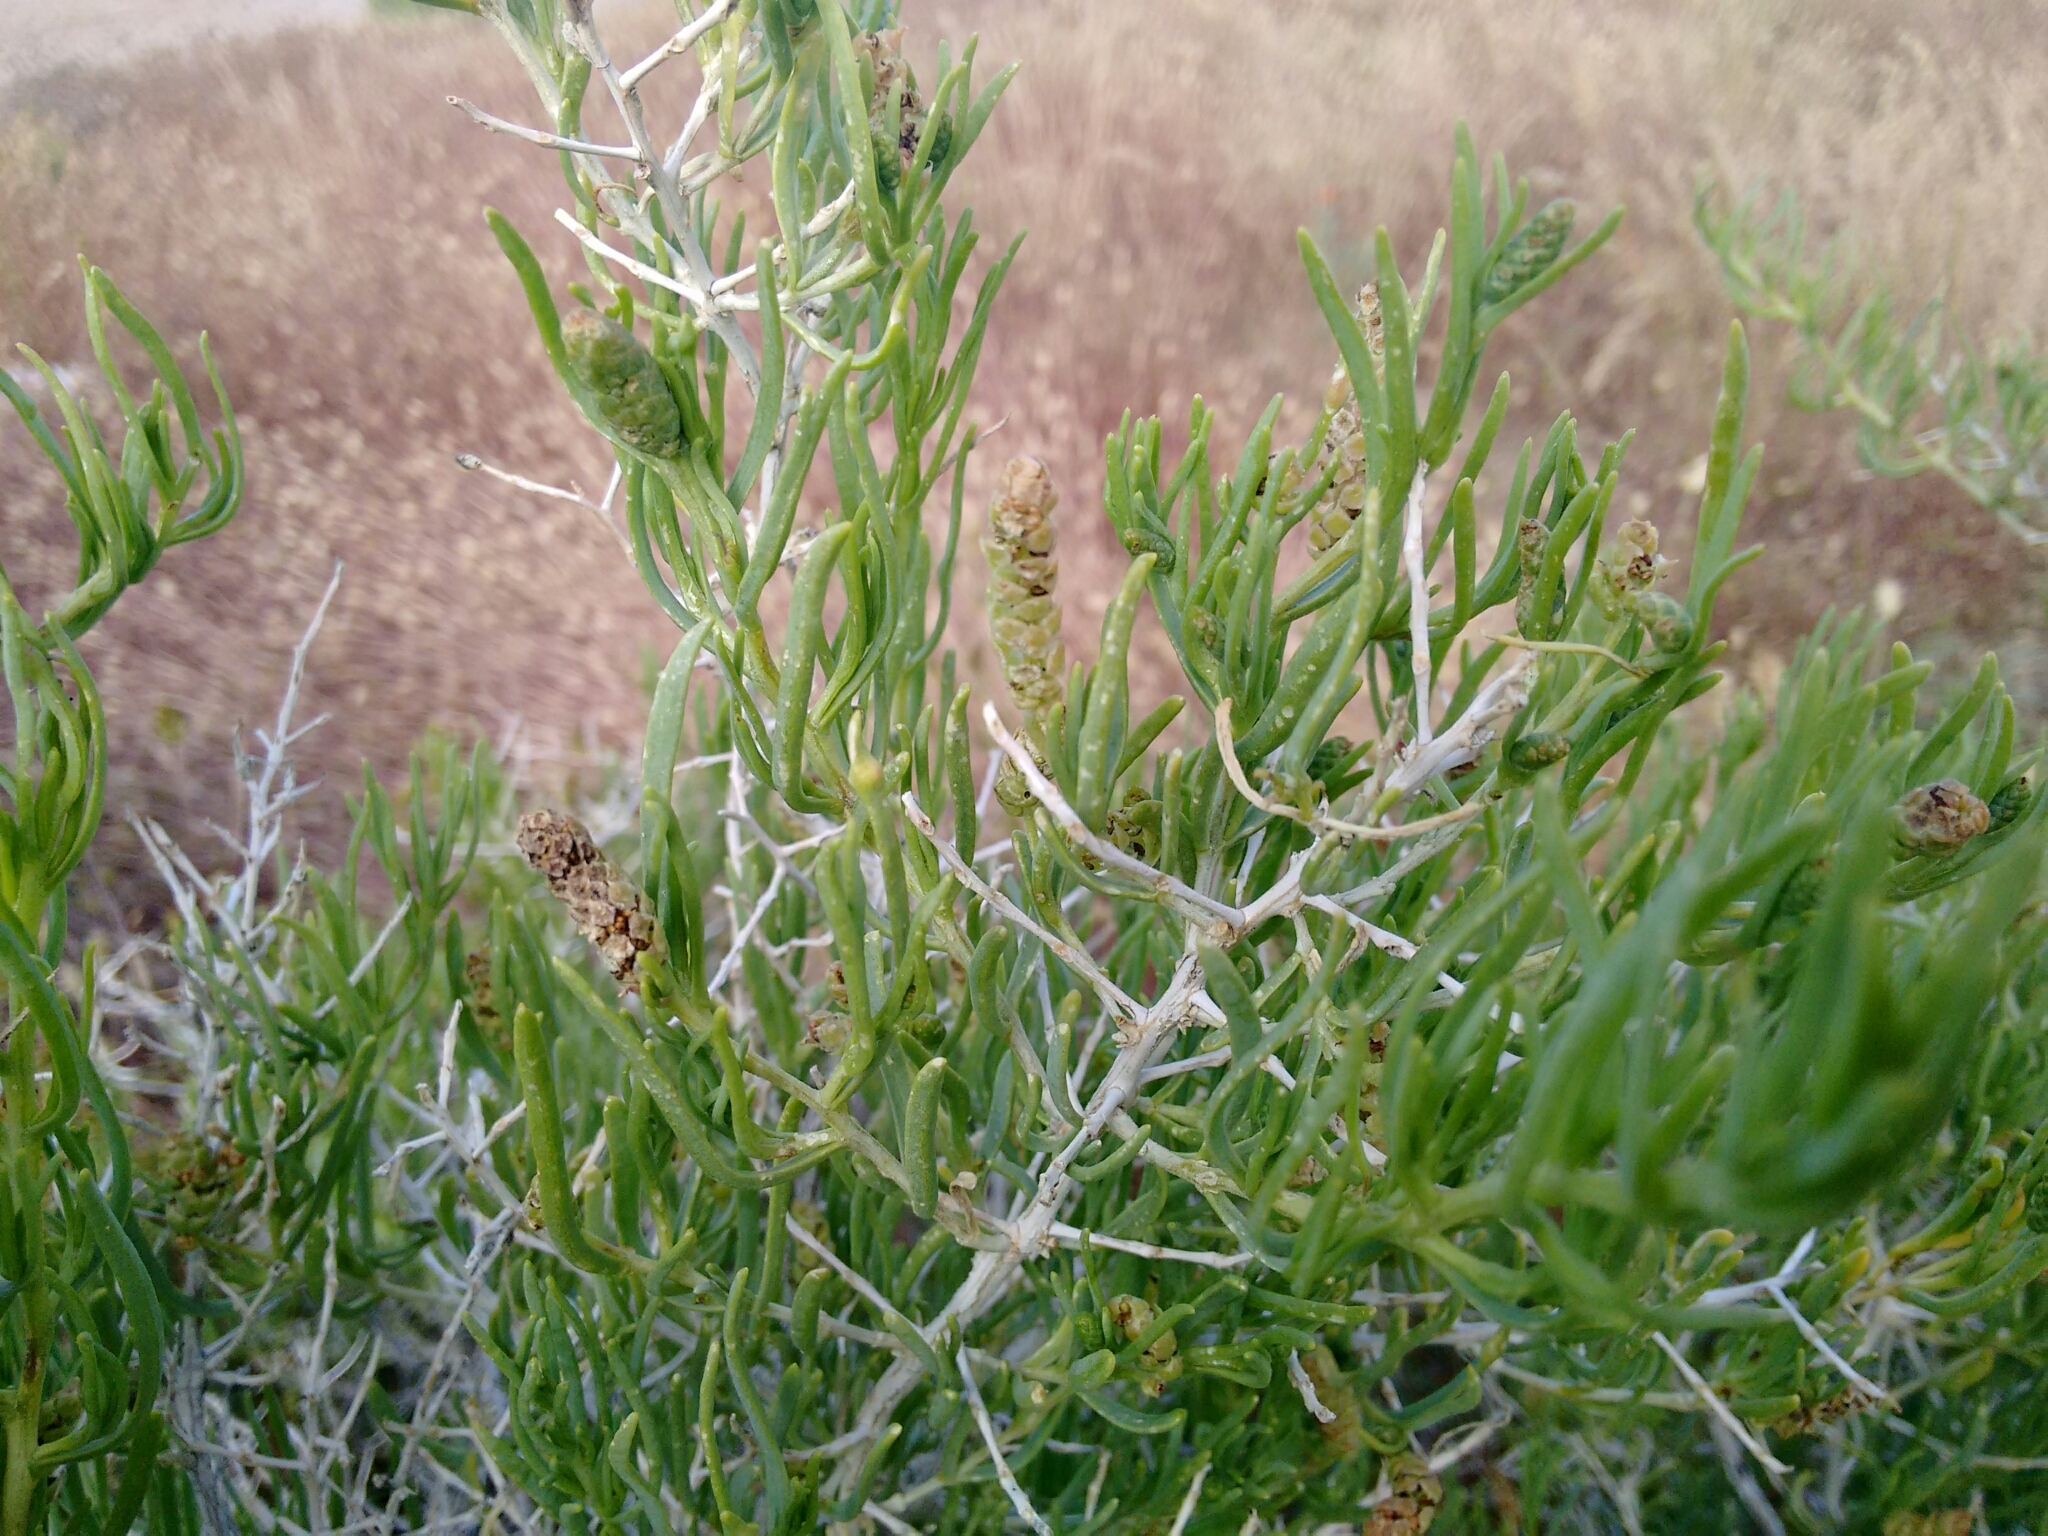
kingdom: Plantae
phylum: Tracheophyta
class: Magnoliopsida
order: Caryophyllales
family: Sarcobataceae
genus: Sarcobatus
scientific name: Sarcobatus vermiculatus
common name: Greasewood
